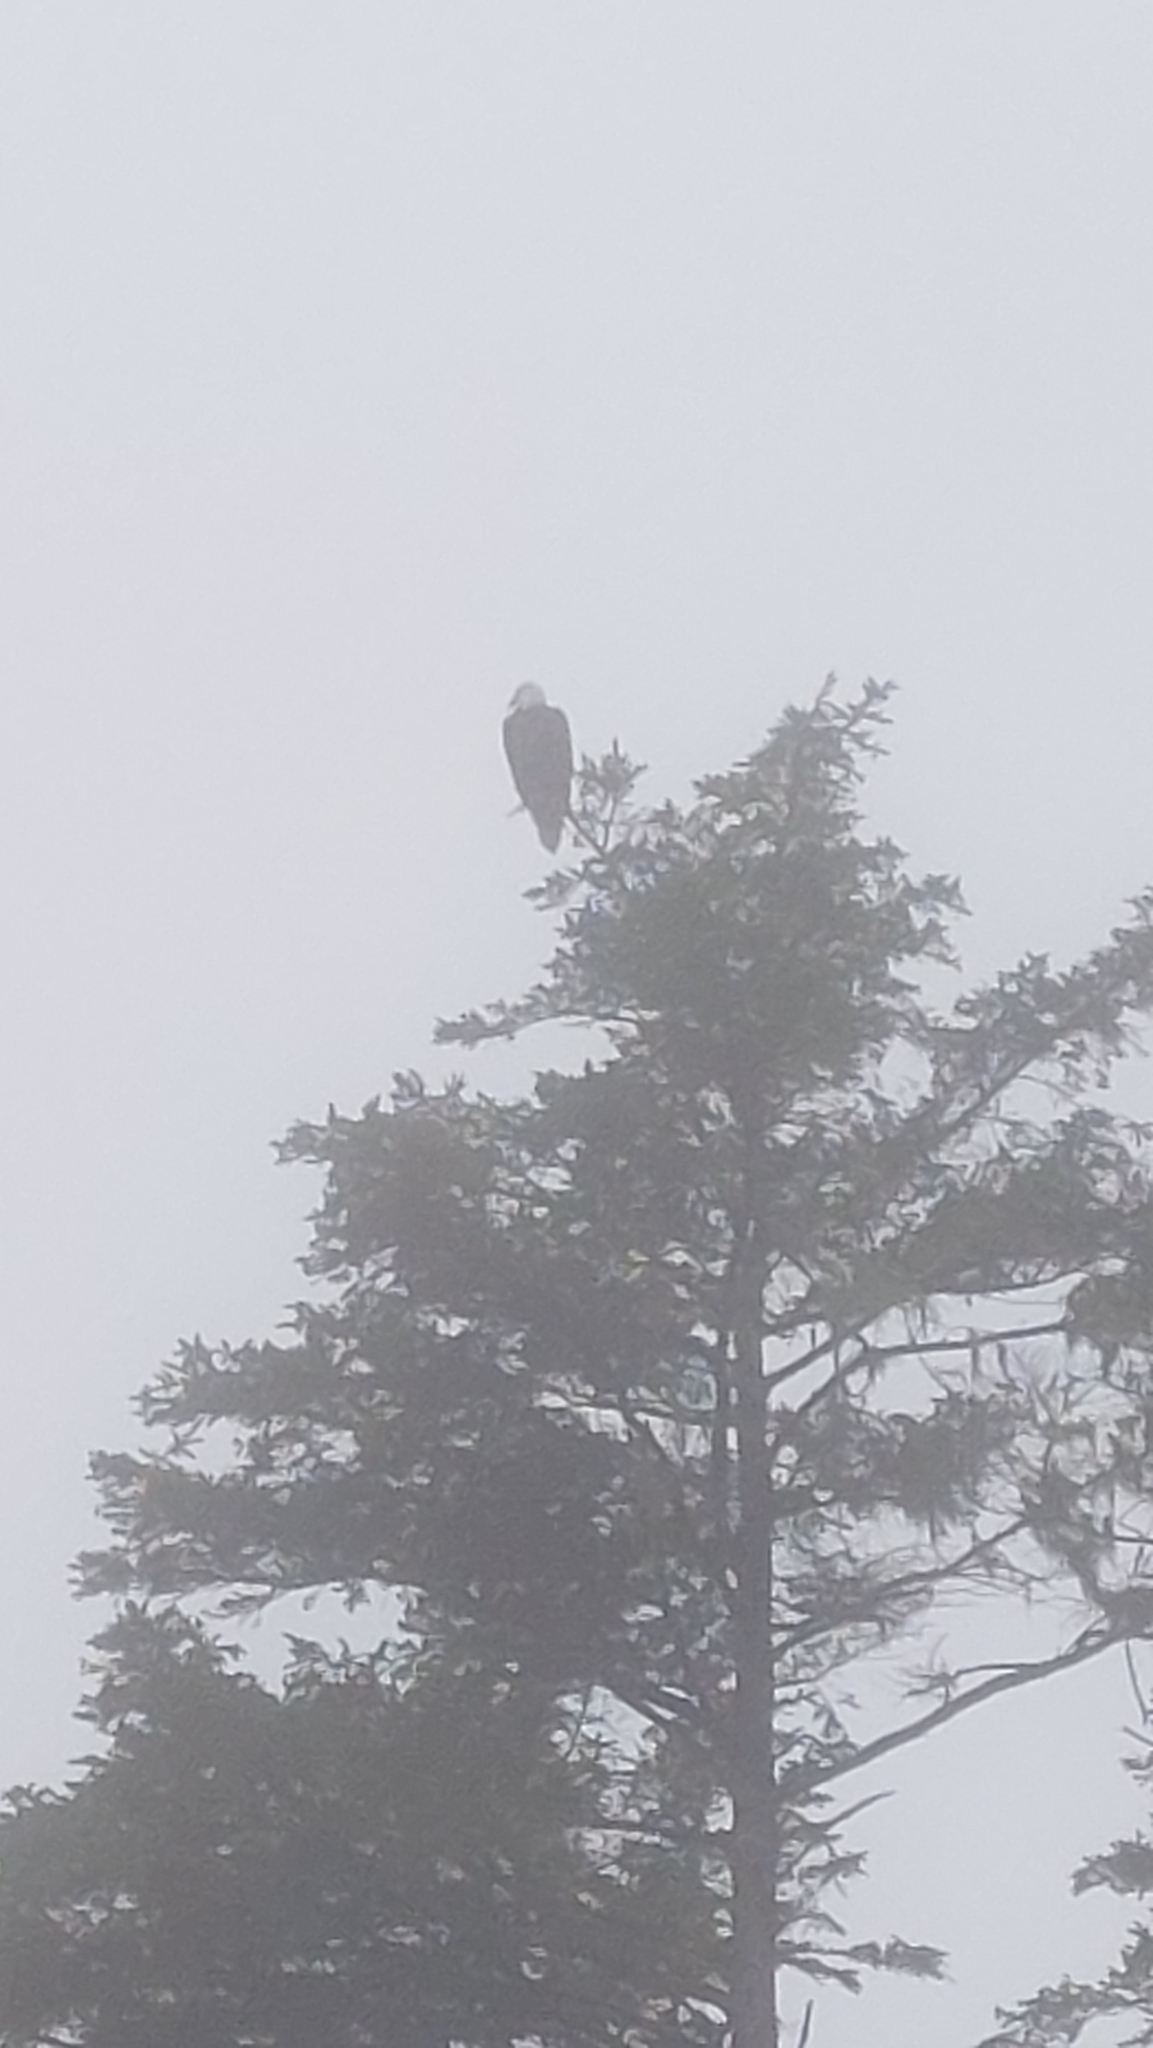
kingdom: Animalia
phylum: Chordata
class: Aves
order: Accipitriformes
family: Accipitridae
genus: Haliaeetus
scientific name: Haliaeetus leucocephalus
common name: Bald eagle
